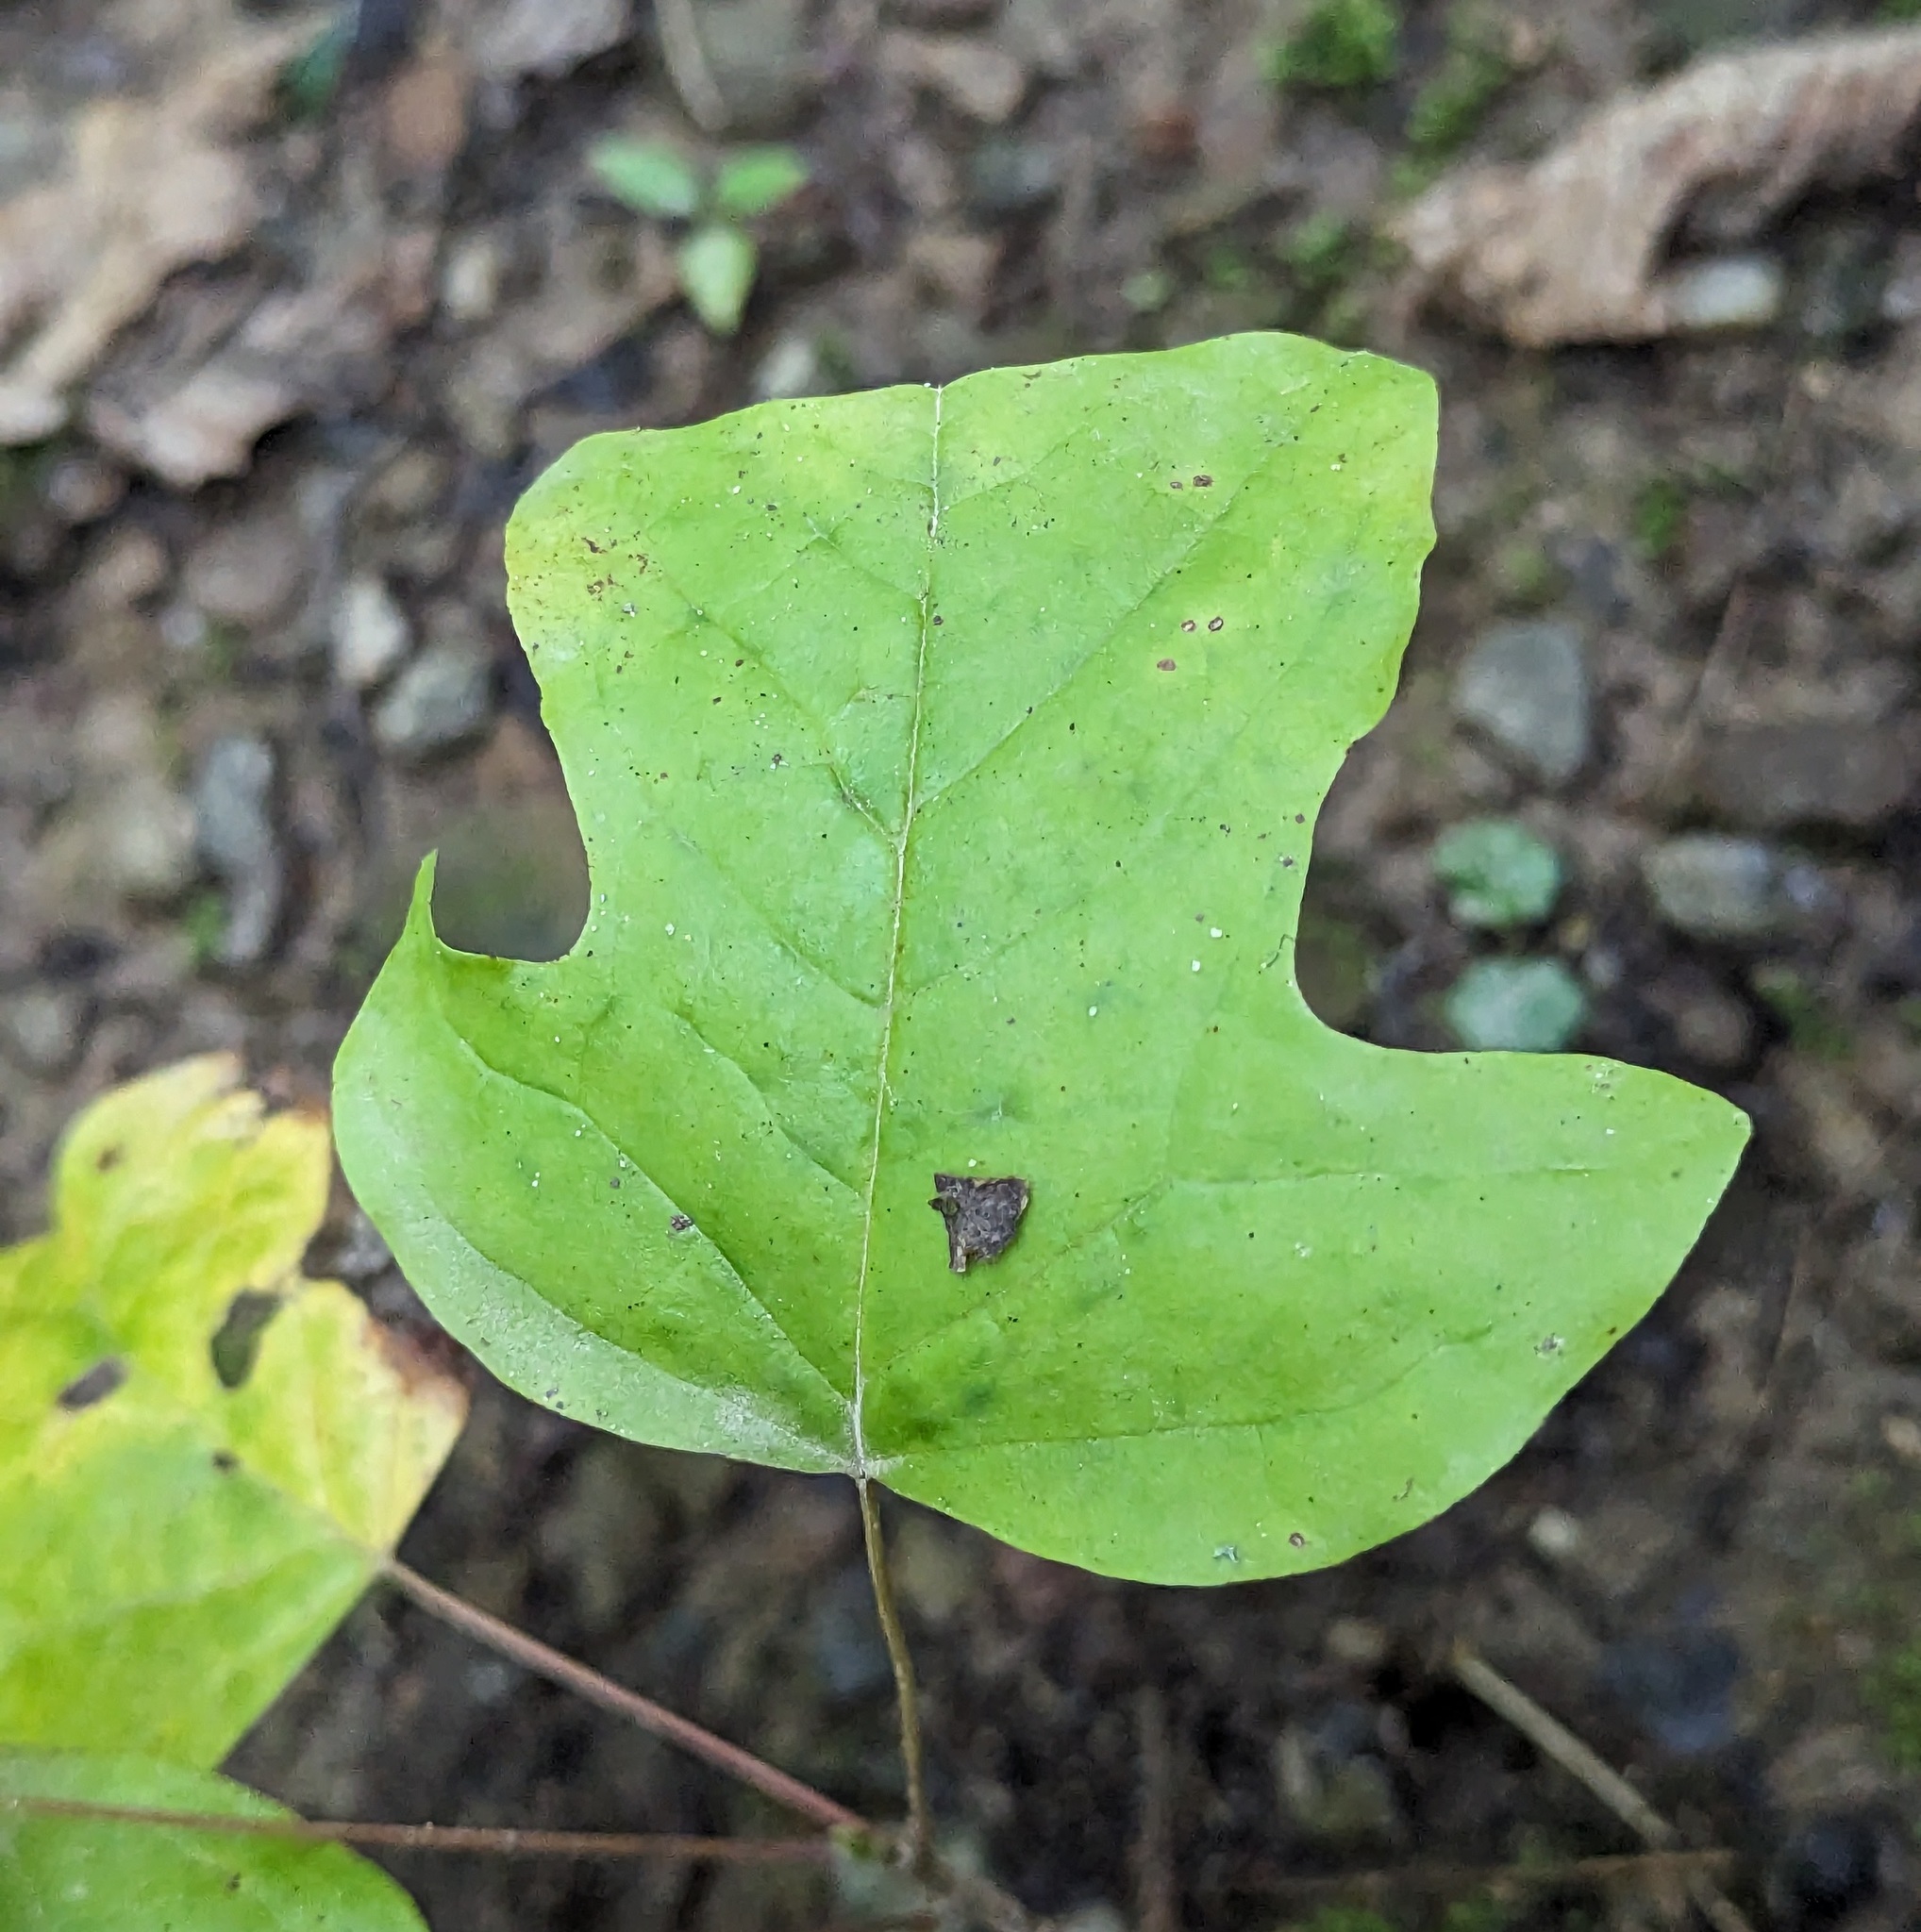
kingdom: Plantae
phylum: Tracheophyta
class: Magnoliopsida
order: Magnoliales
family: Magnoliaceae
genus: Liriodendron
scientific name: Liriodendron tulipifera
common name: Tulip tree
